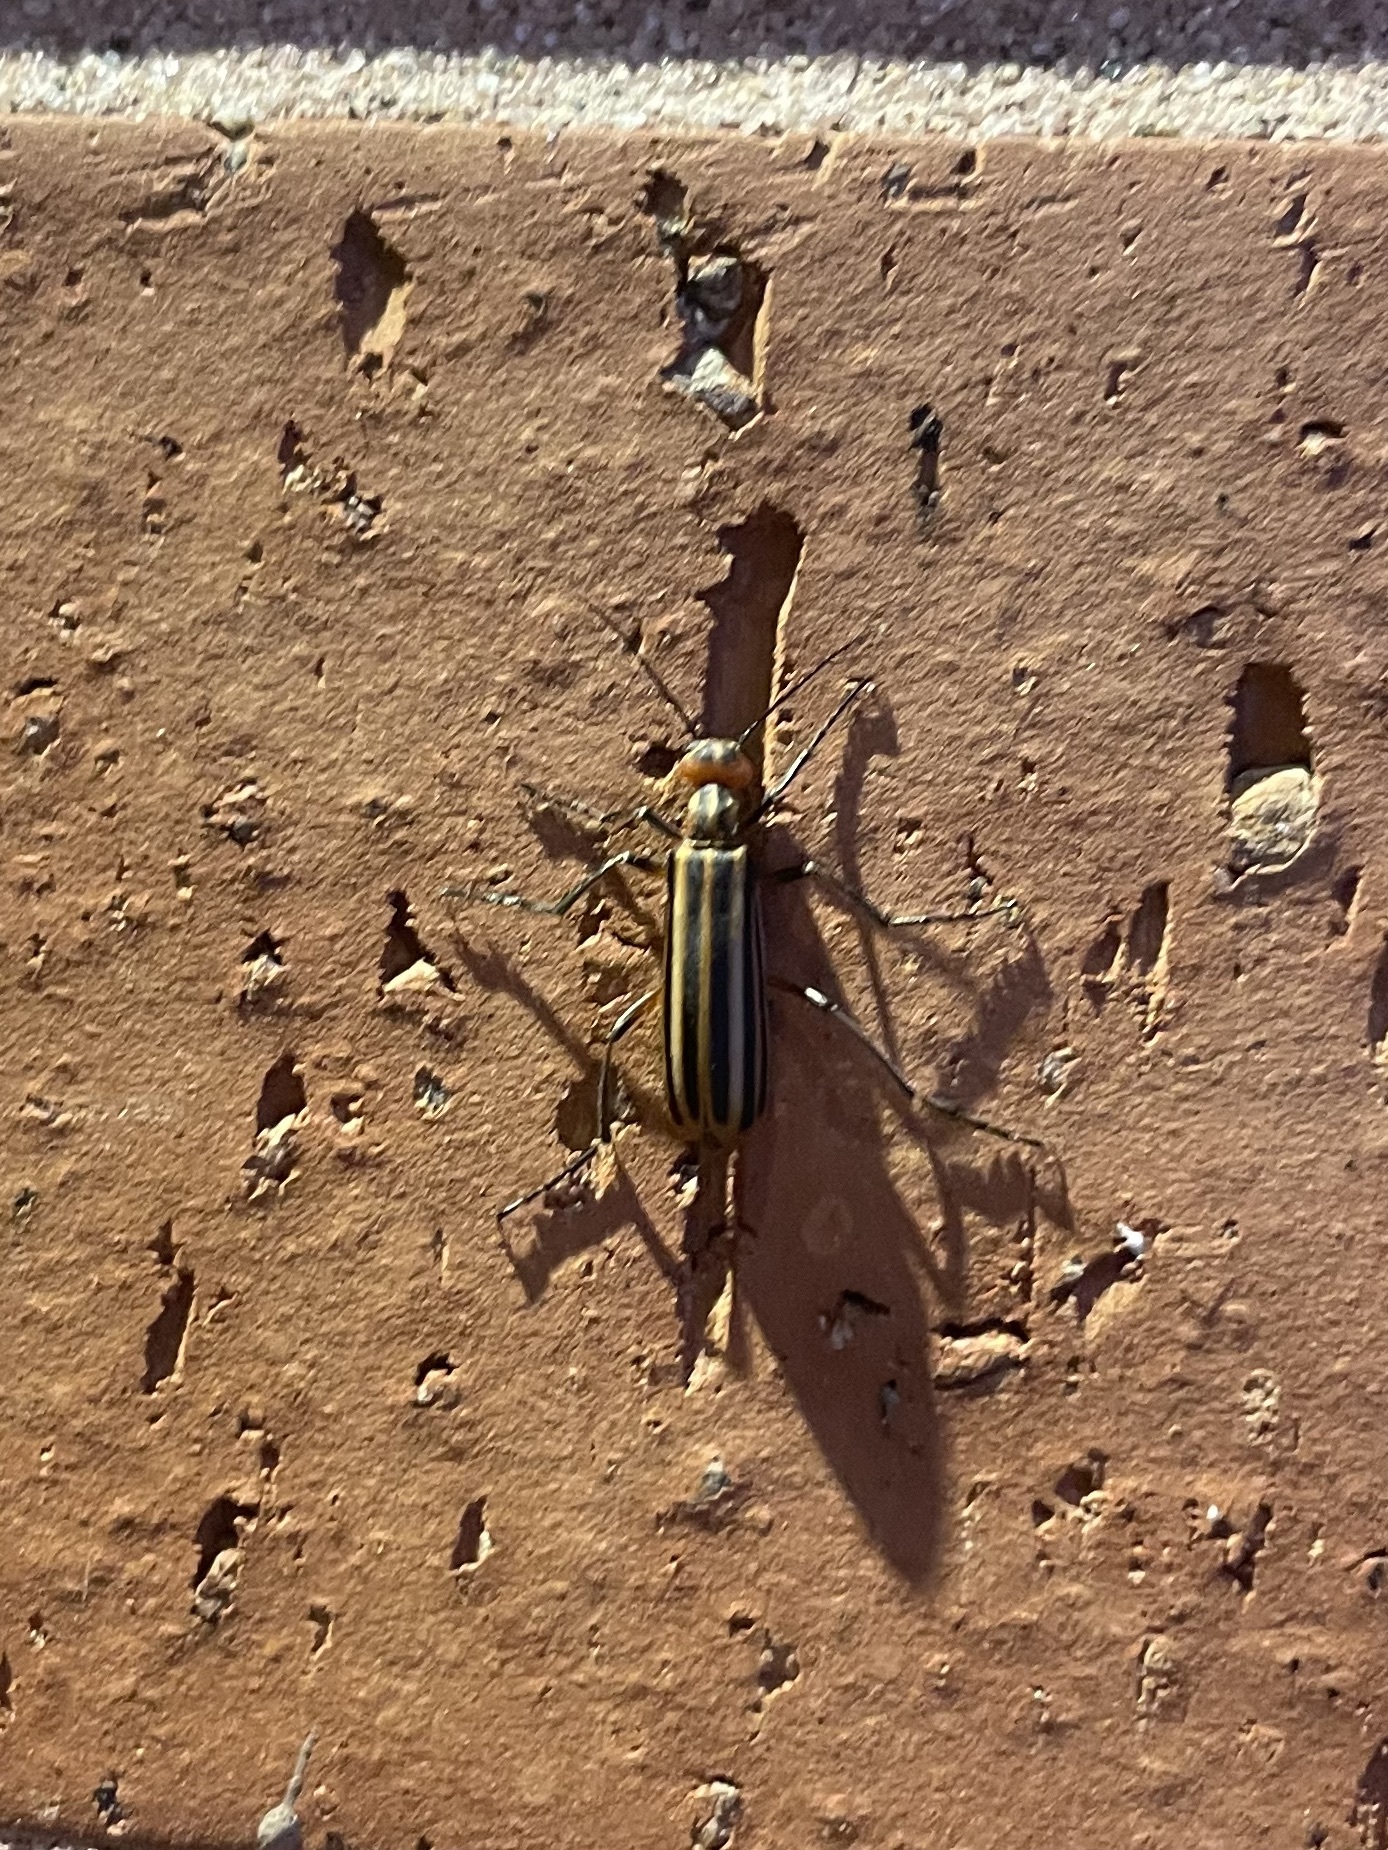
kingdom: Animalia
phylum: Arthropoda
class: Insecta
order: Coleoptera
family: Meloidae
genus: Epicauta
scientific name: Epicauta vittata
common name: Old-fashioned potato beetle
